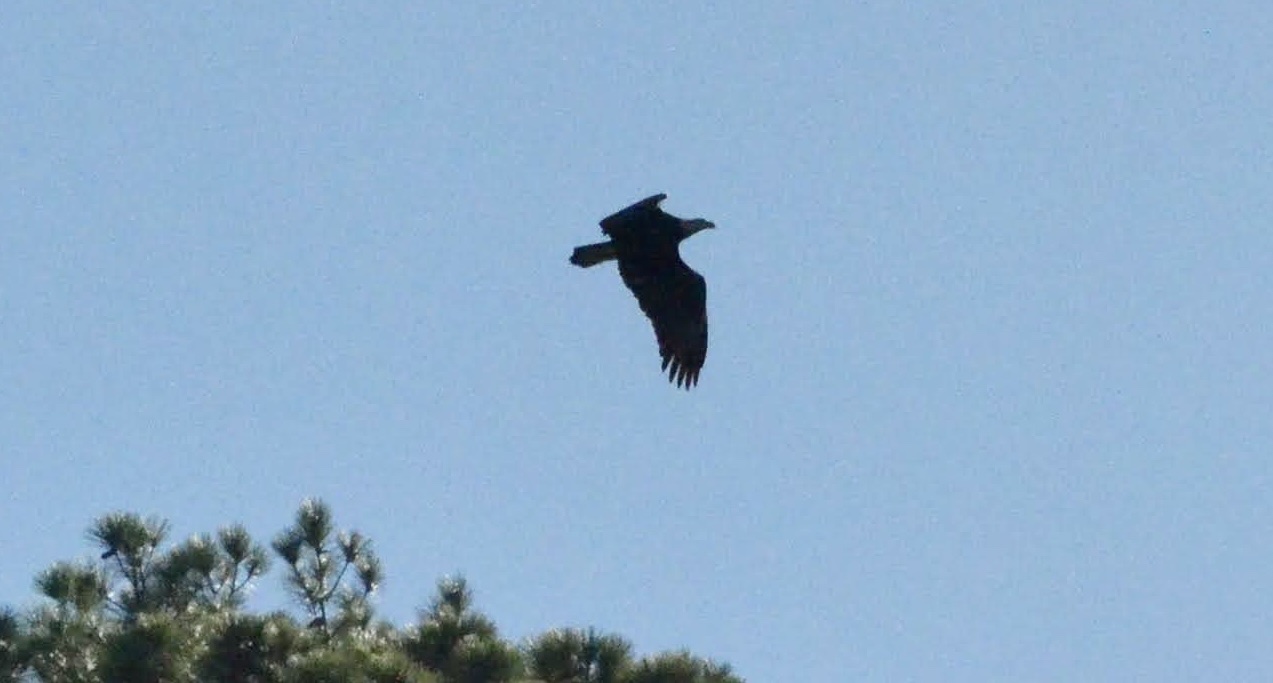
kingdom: Animalia
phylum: Chordata
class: Aves
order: Accipitriformes
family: Accipitridae
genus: Haliaeetus
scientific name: Haliaeetus leucocephalus
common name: Bald eagle
